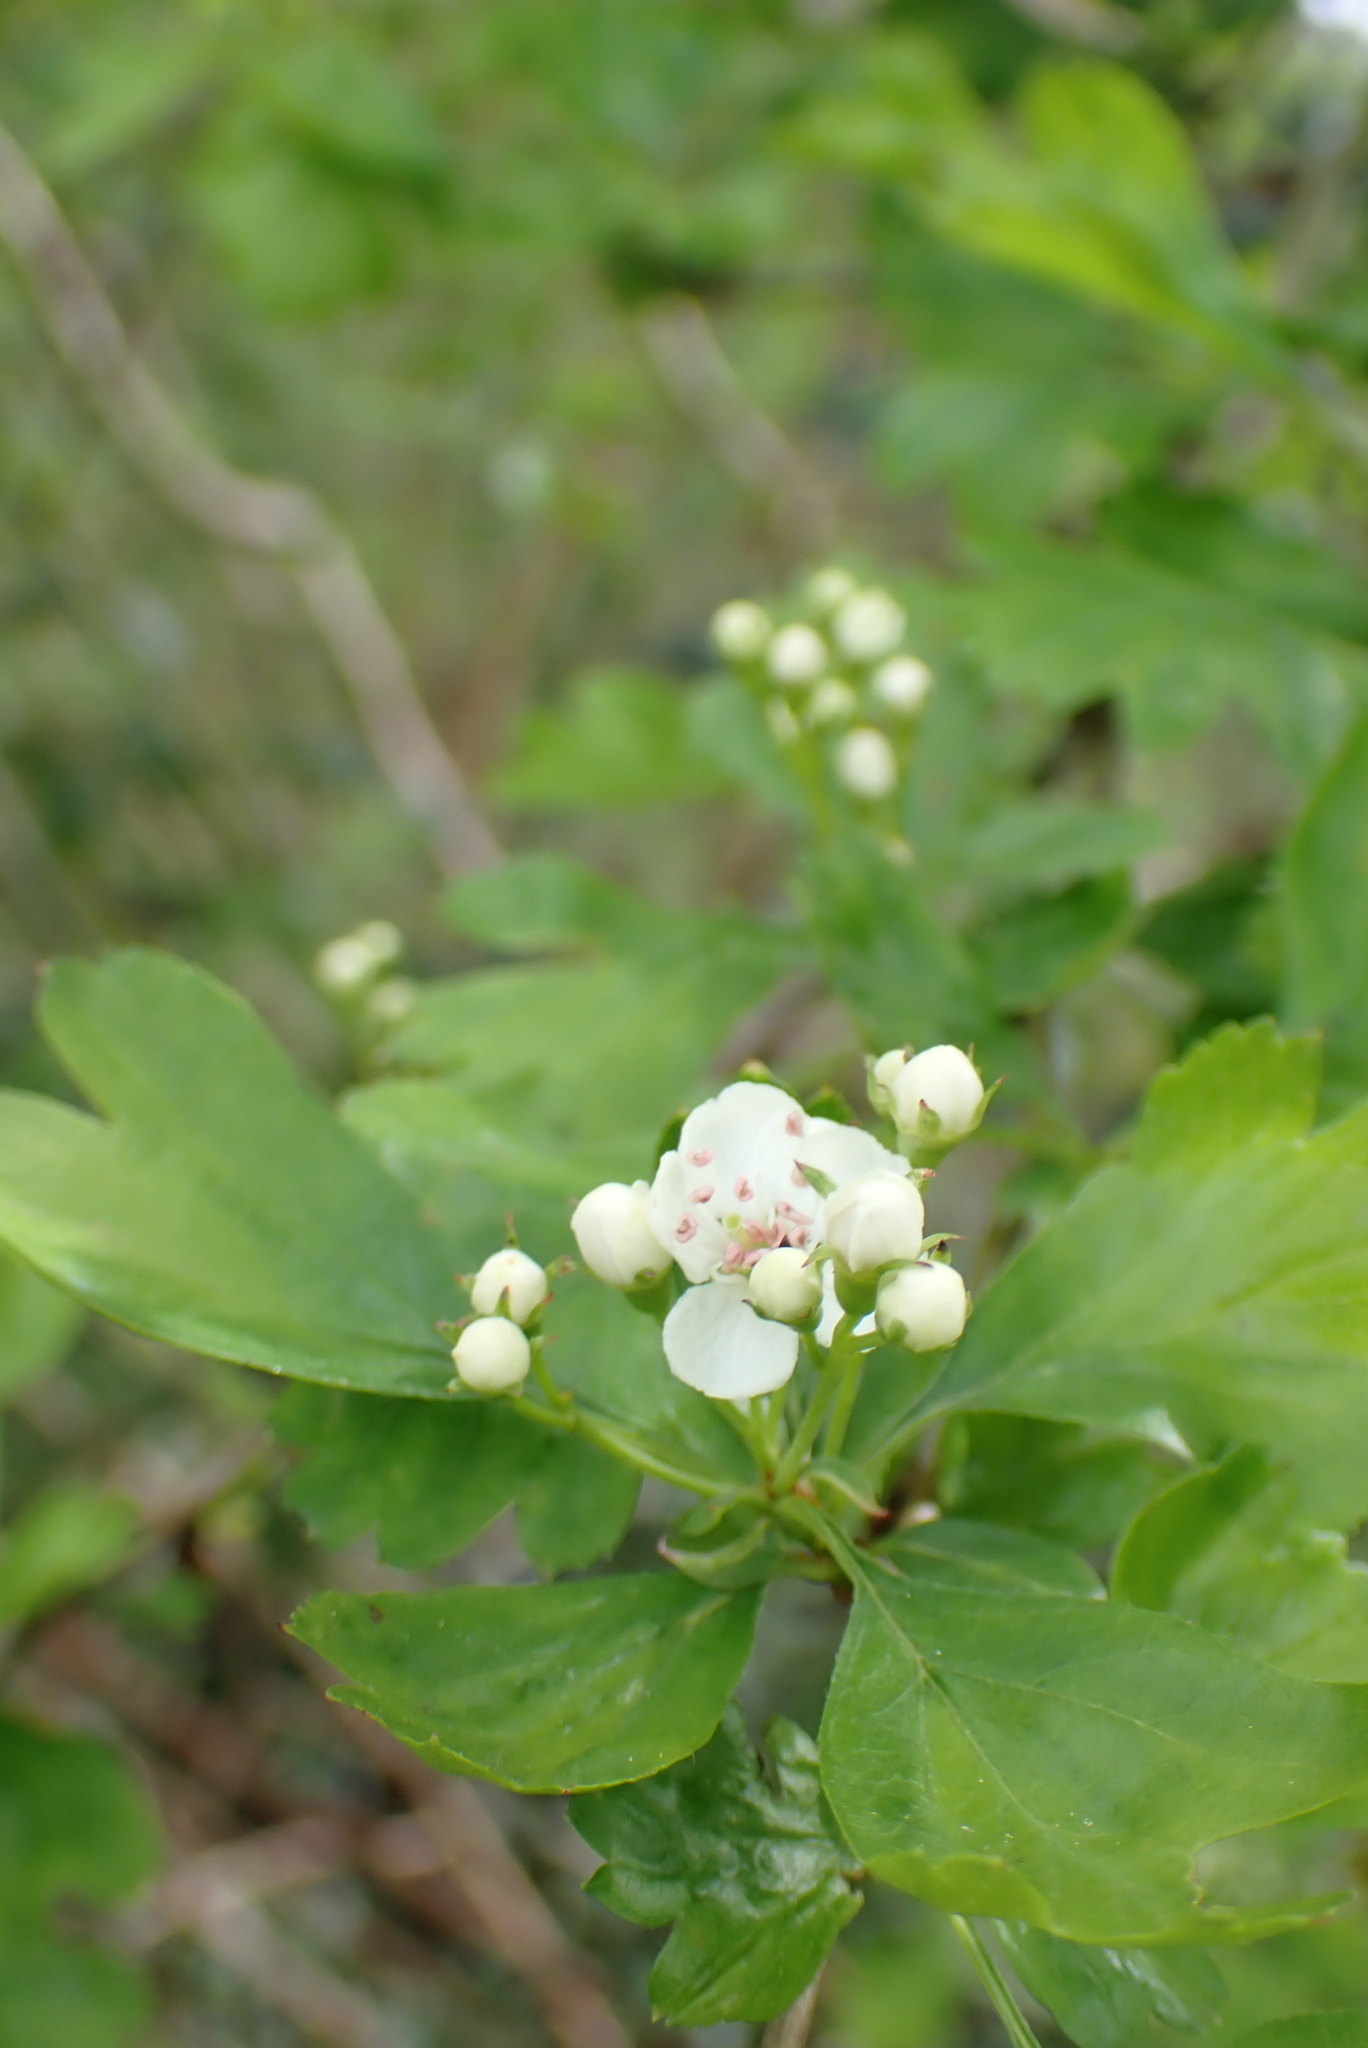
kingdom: Plantae
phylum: Tracheophyta
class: Magnoliopsida
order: Rosales
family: Rosaceae
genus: Crataegus
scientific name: Crataegus monogyna
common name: Hawthorn
